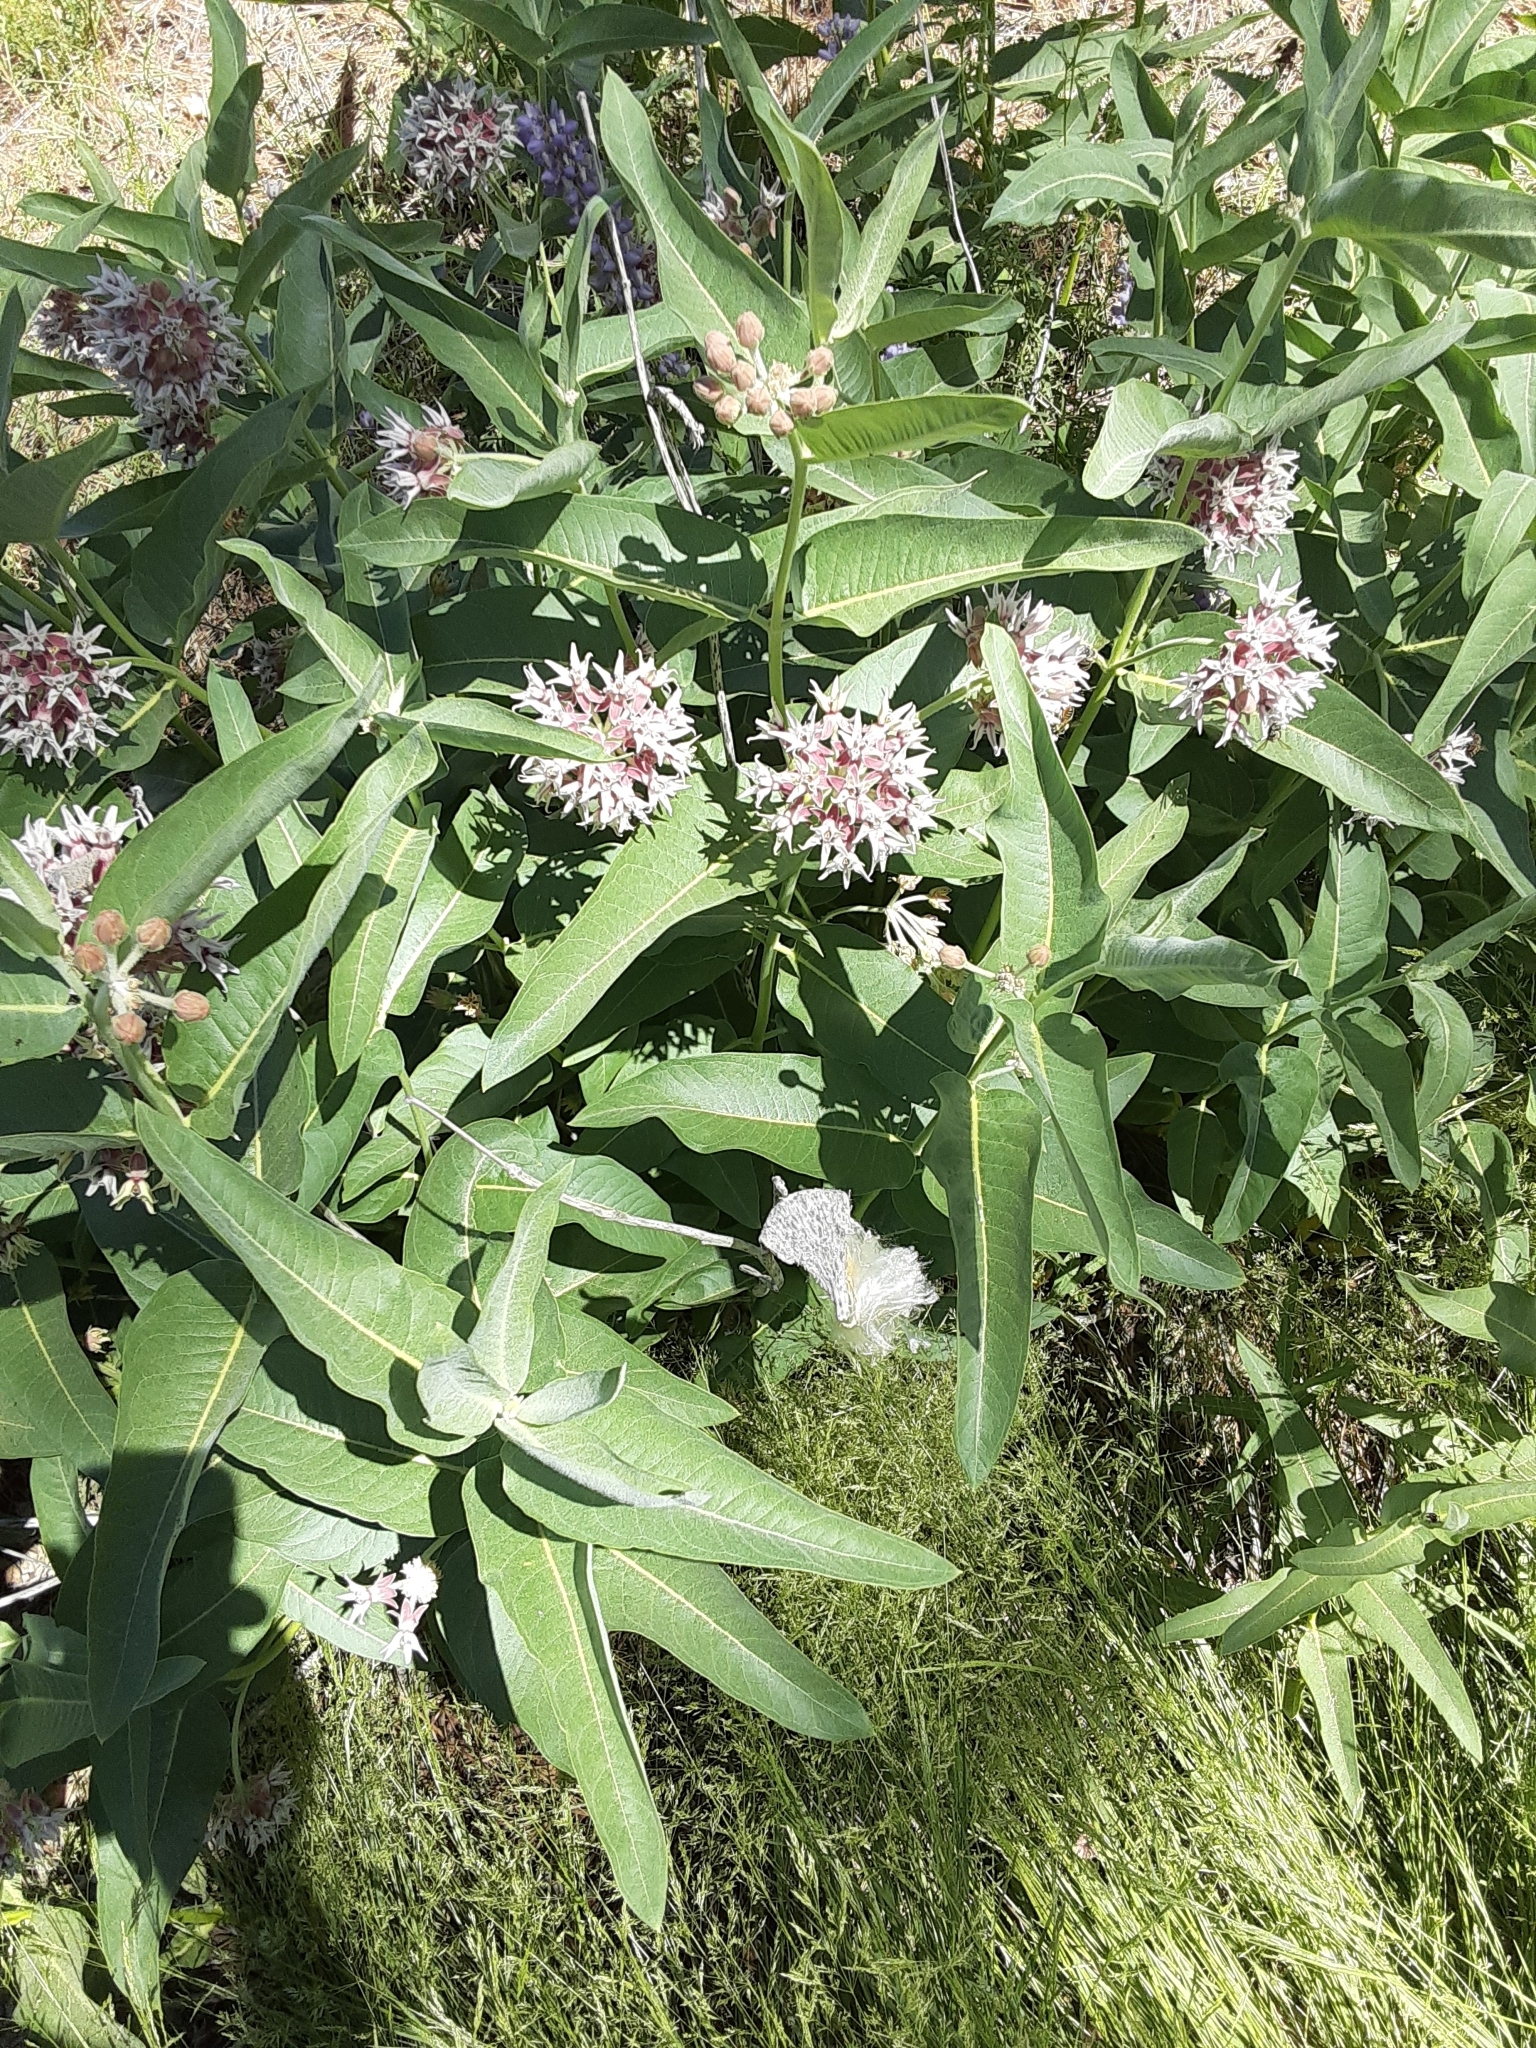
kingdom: Plantae
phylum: Tracheophyta
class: Magnoliopsida
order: Gentianales
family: Apocynaceae
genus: Asclepias
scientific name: Asclepias speciosa
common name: Showy milkweed
